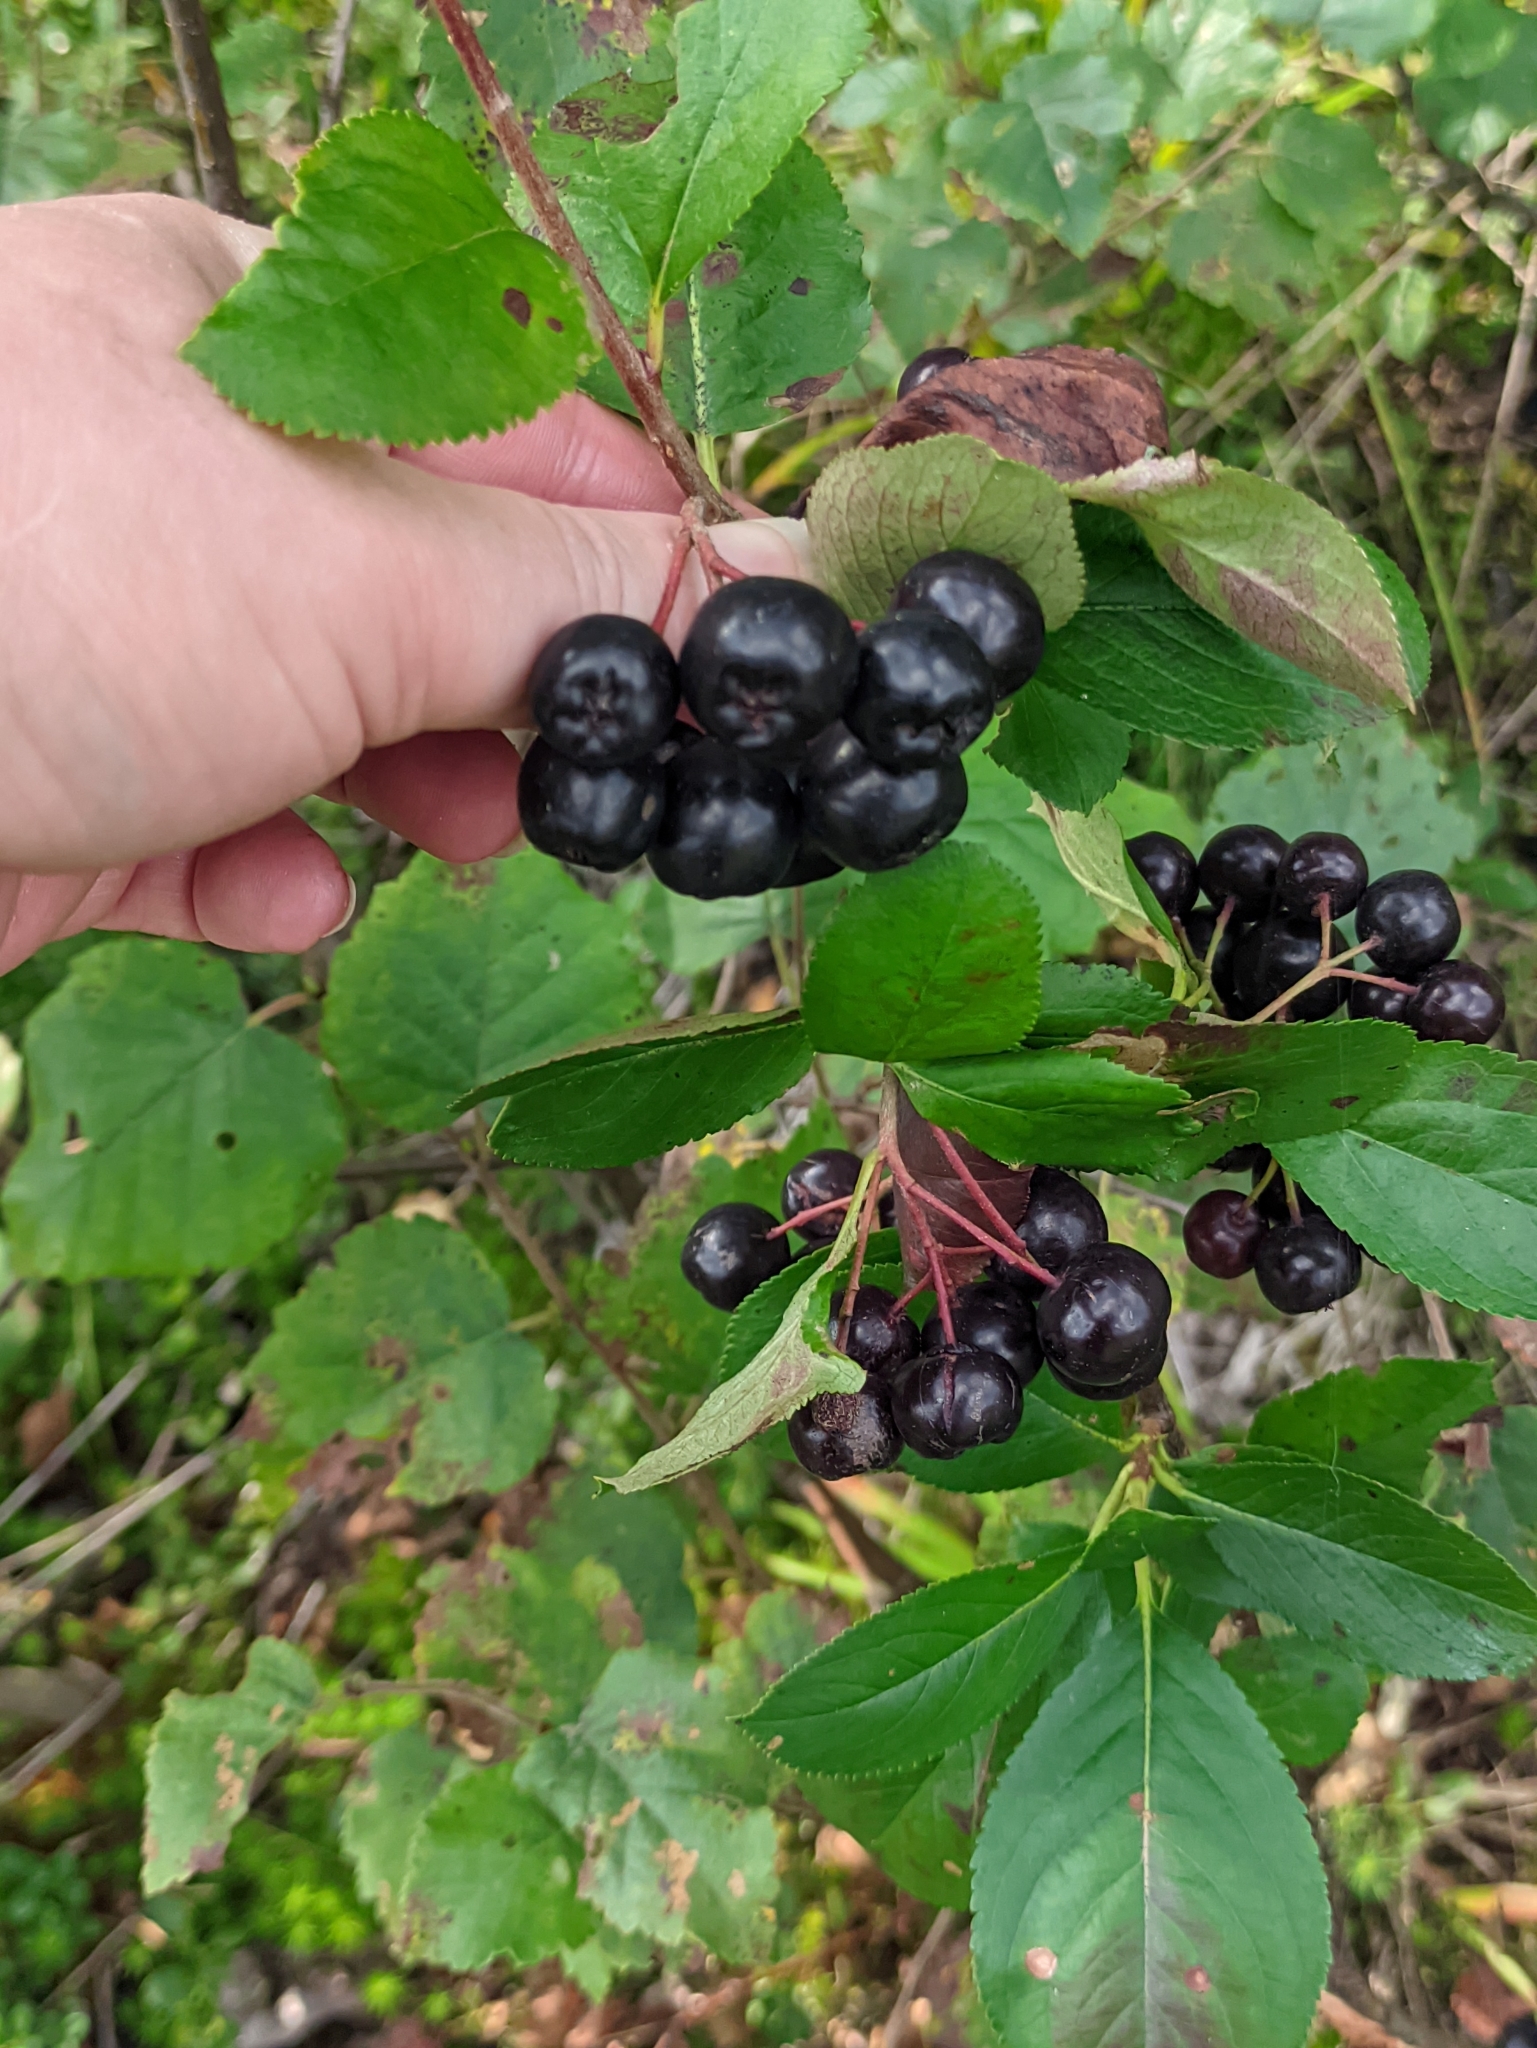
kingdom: Plantae
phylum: Tracheophyta
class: Magnoliopsida
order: Rosales
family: Rosaceae
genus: Sorbaronia
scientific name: Sorbaronia arsenii
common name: Arsène's mountain-ash
